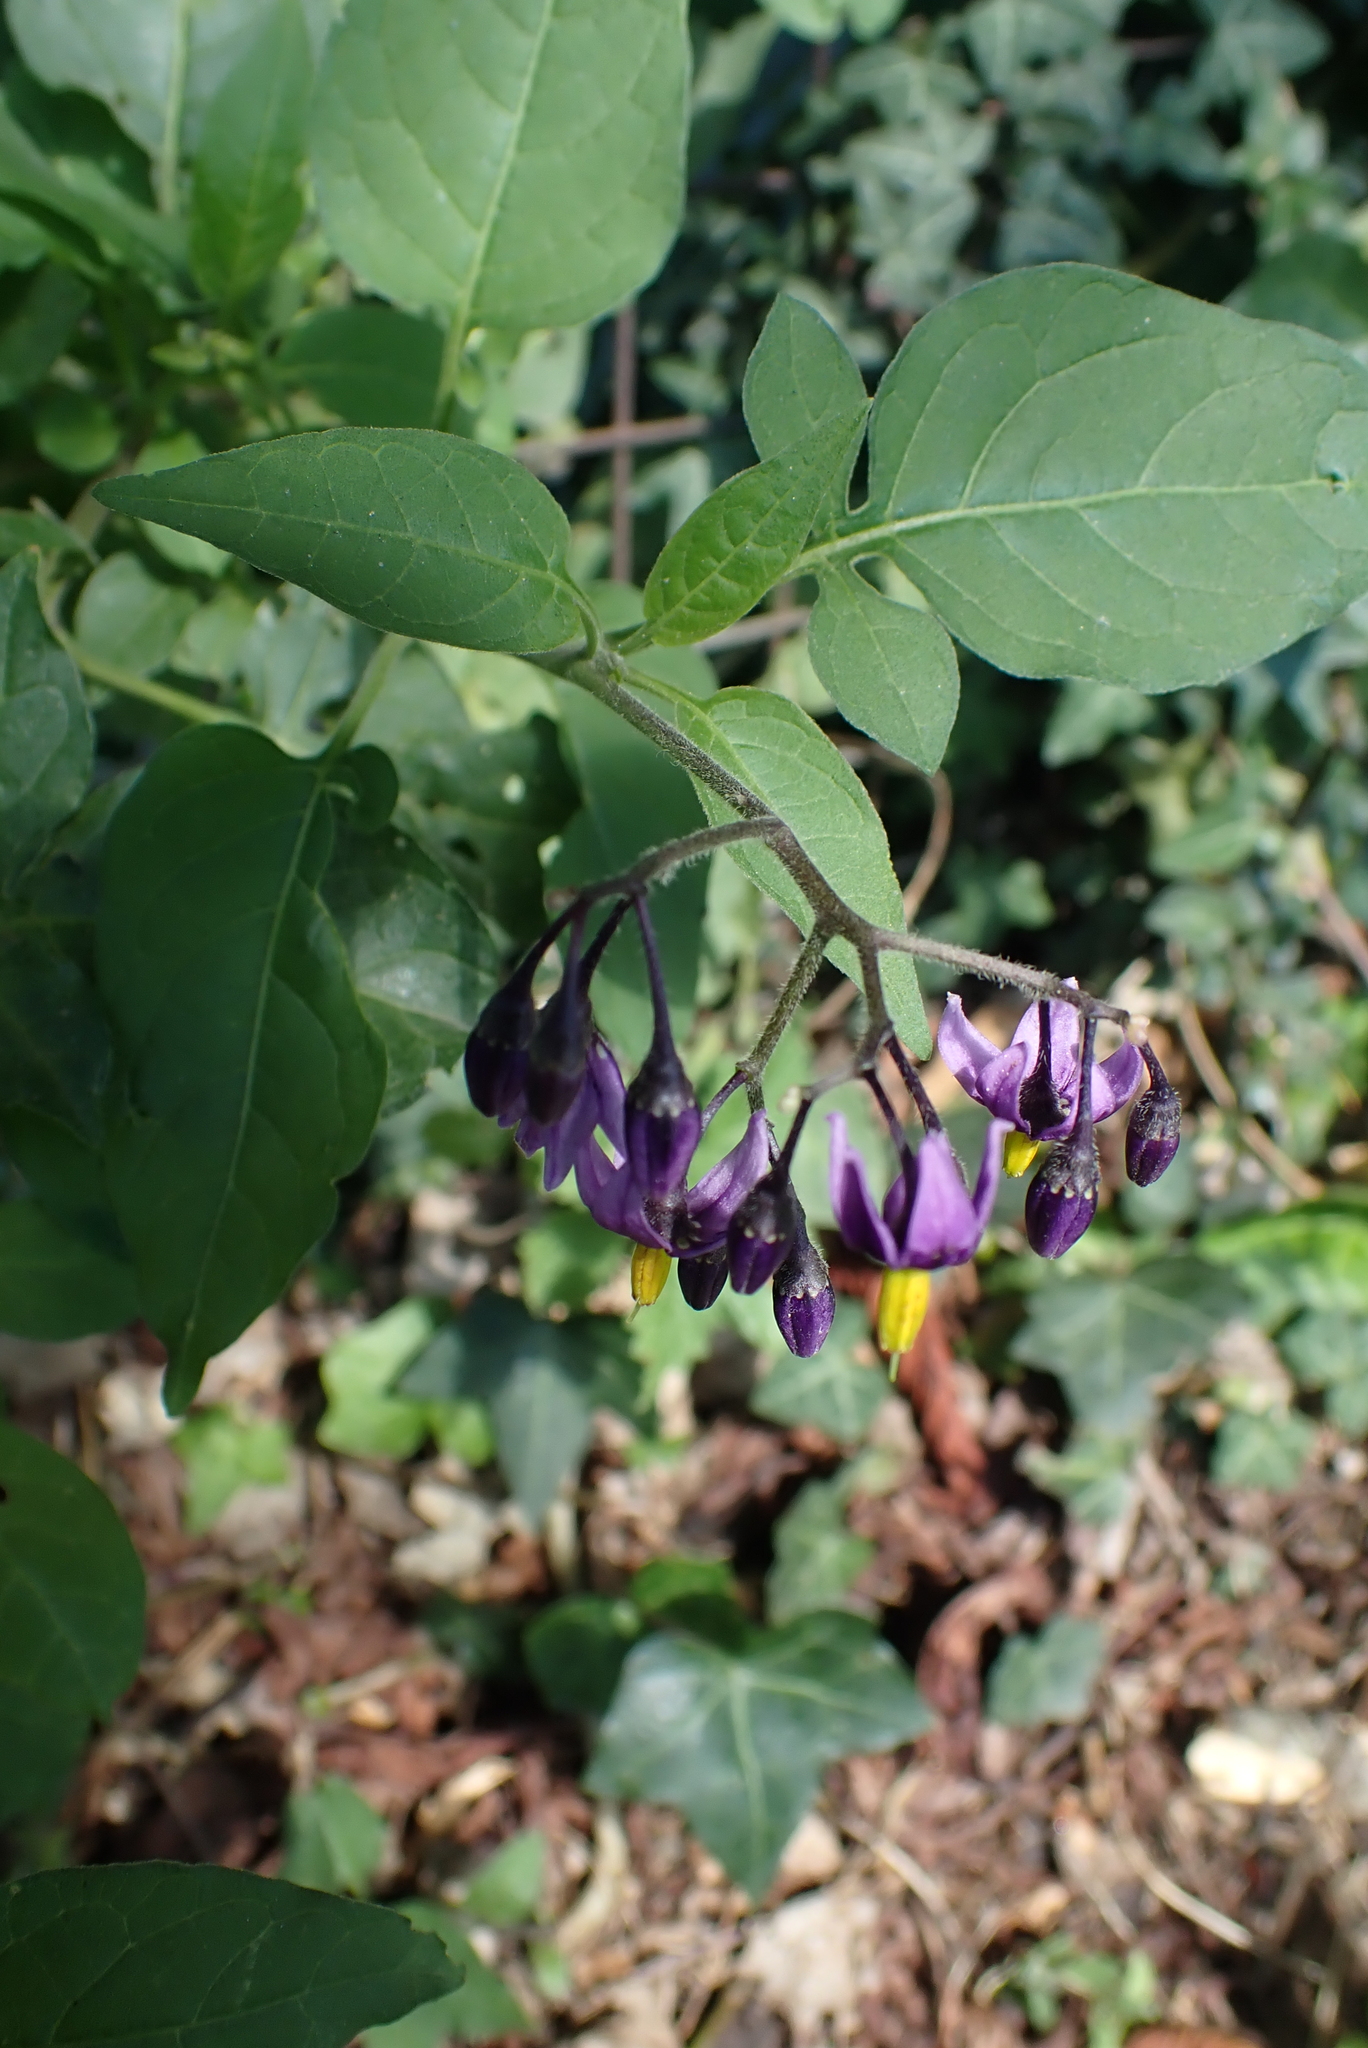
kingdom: Plantae
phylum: Tracheophyta
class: Magnoliopsida
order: Solanales
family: Solanaceae
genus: Solanum
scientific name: Solanum dulcamara
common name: Climbing nightshade
